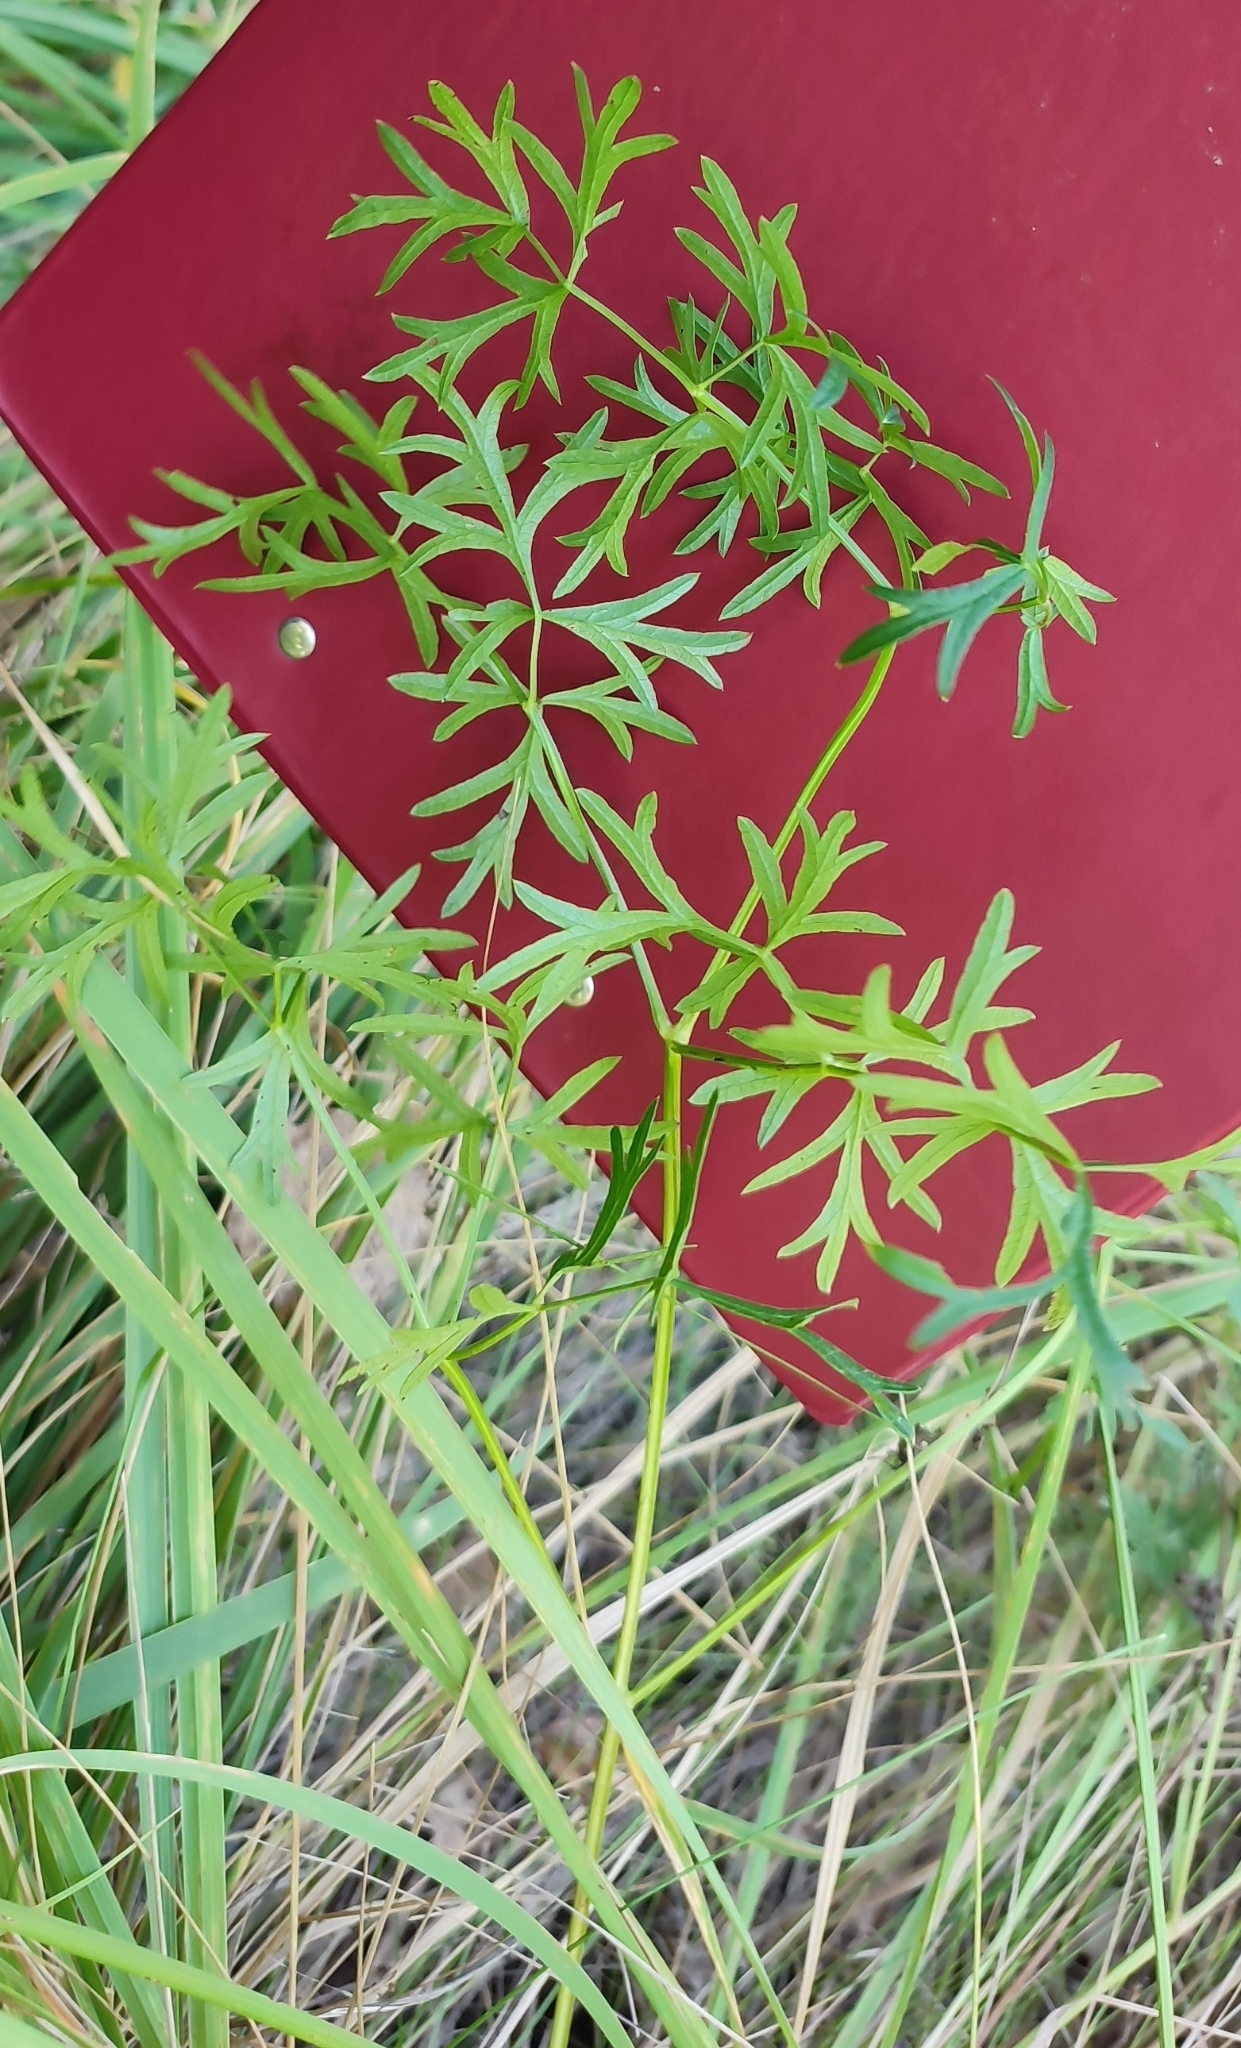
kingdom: Plantae
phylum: Tracheophyta
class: Magnoliopsida
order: Apiales
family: Apiaceae
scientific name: Apiaceae
